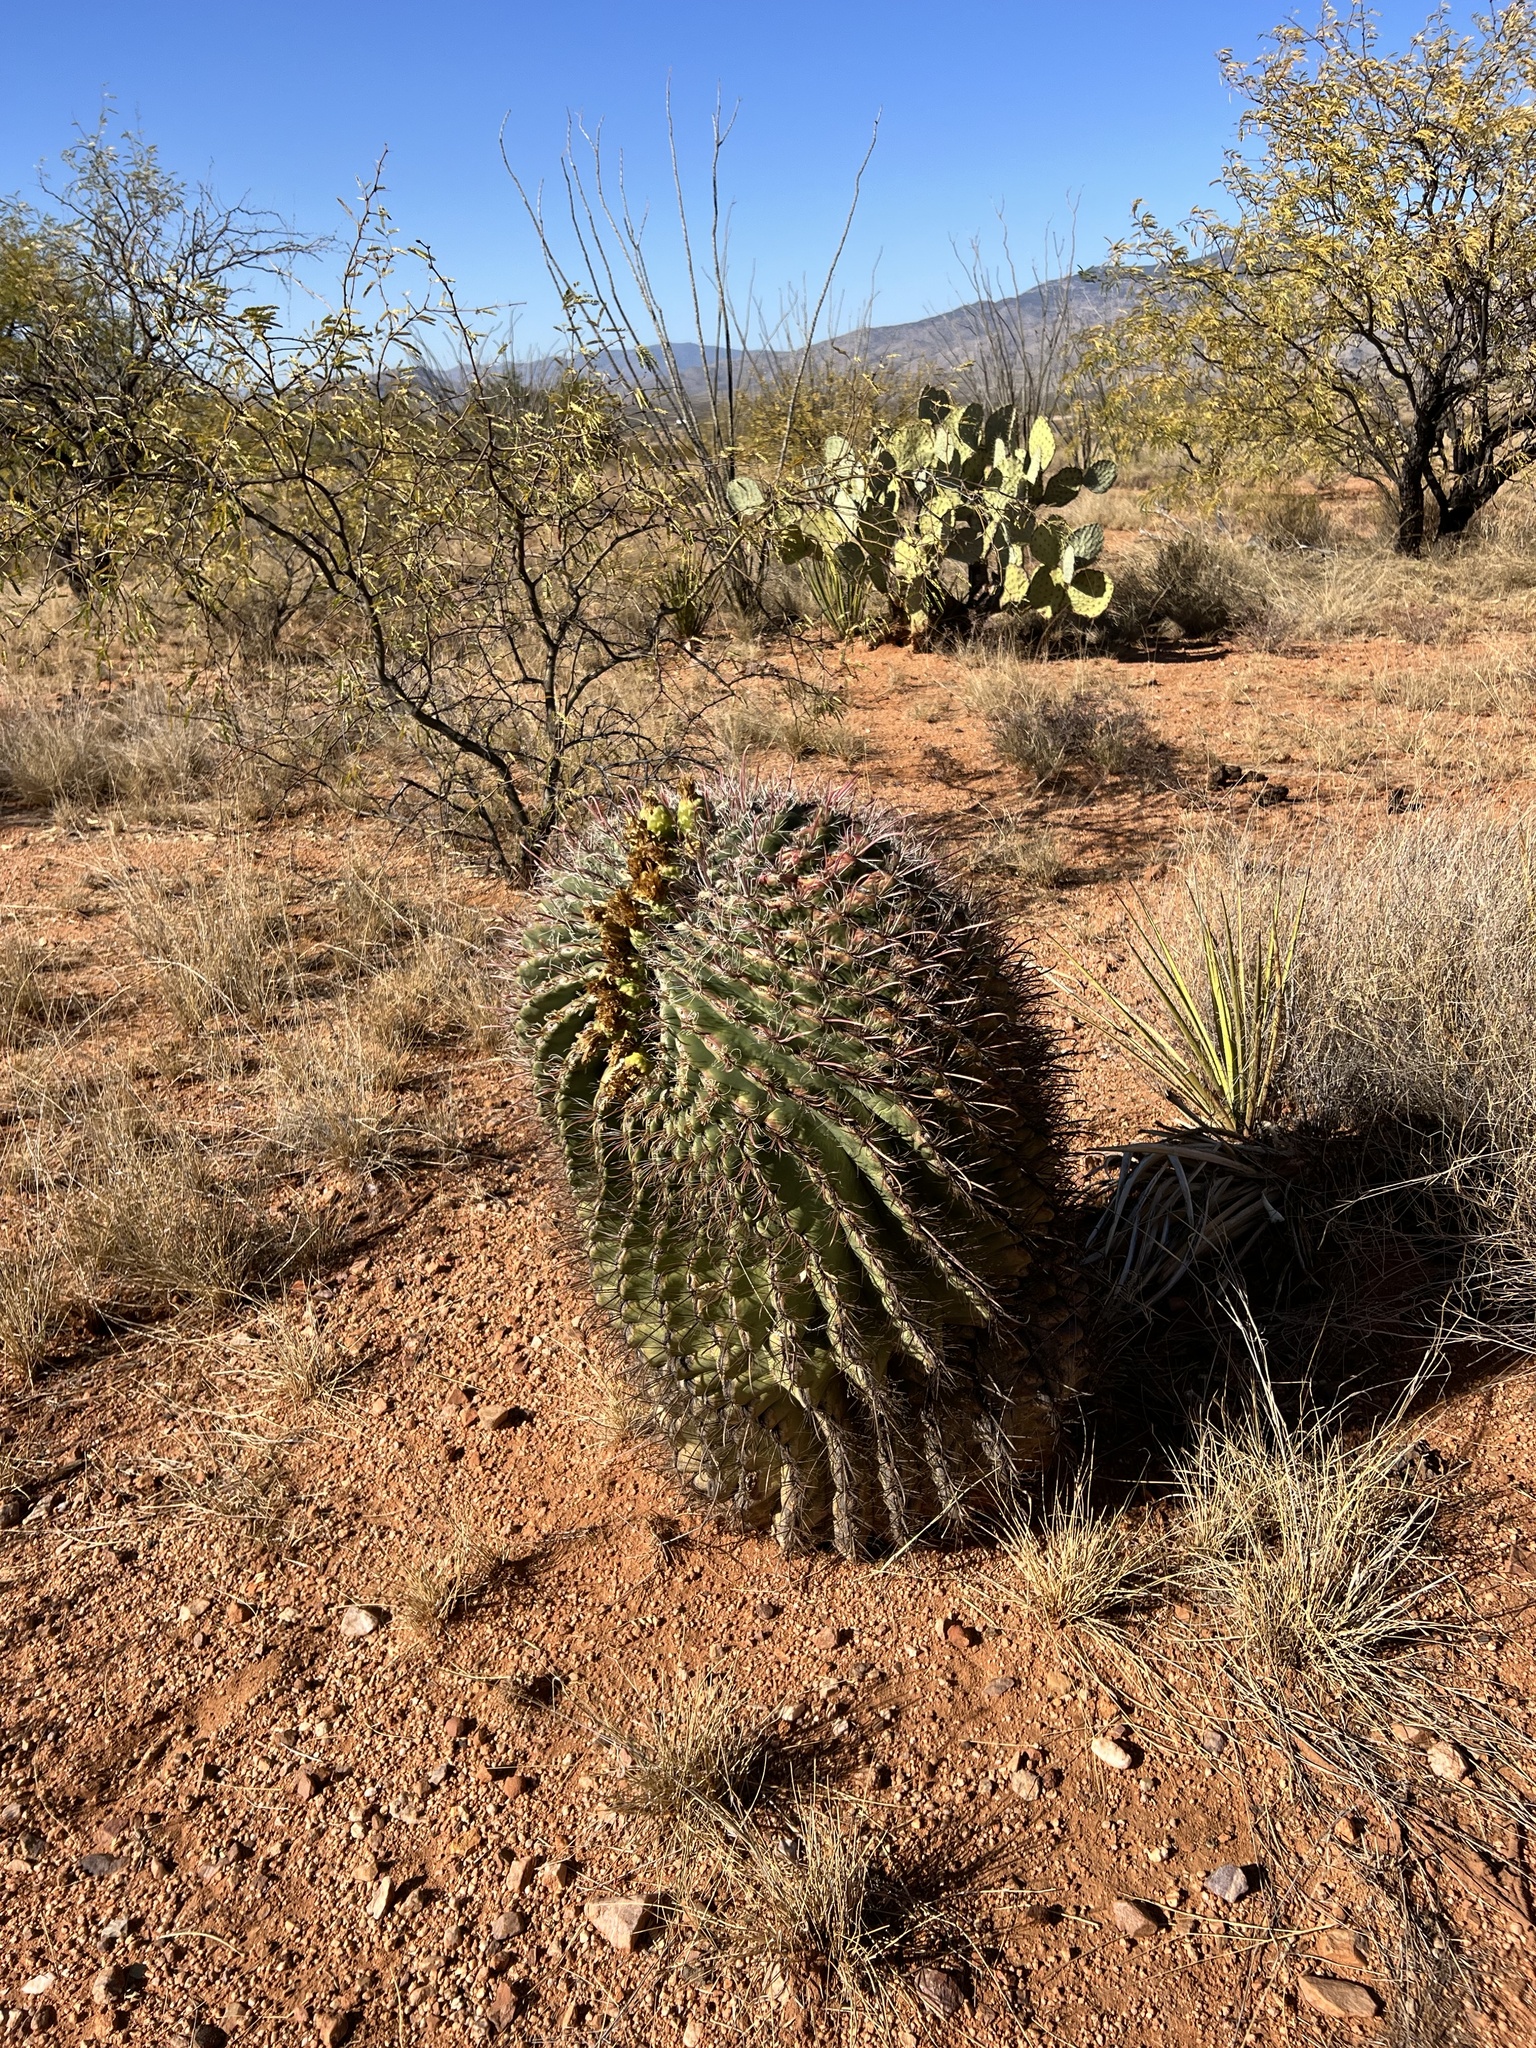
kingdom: Plantae
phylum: Tracheophyta
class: Magnoliopsida
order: Caryophyllales
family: Cactaceae
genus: Ferocactus
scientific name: Ferocactus wislizeni
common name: Candy barrel cactus
